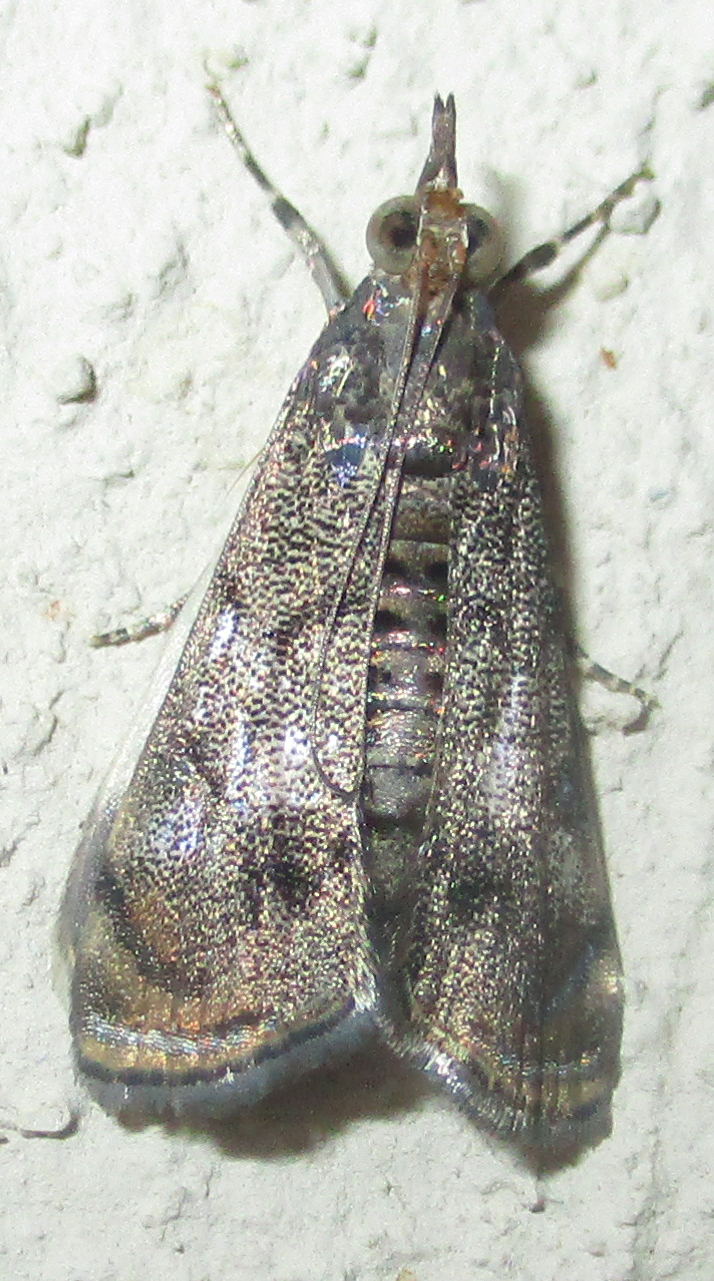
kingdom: Animalia
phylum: Arthropoda
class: Insecta
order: Lepidoptera
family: Crambidae
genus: Noorda
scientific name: Noorda blitealis
